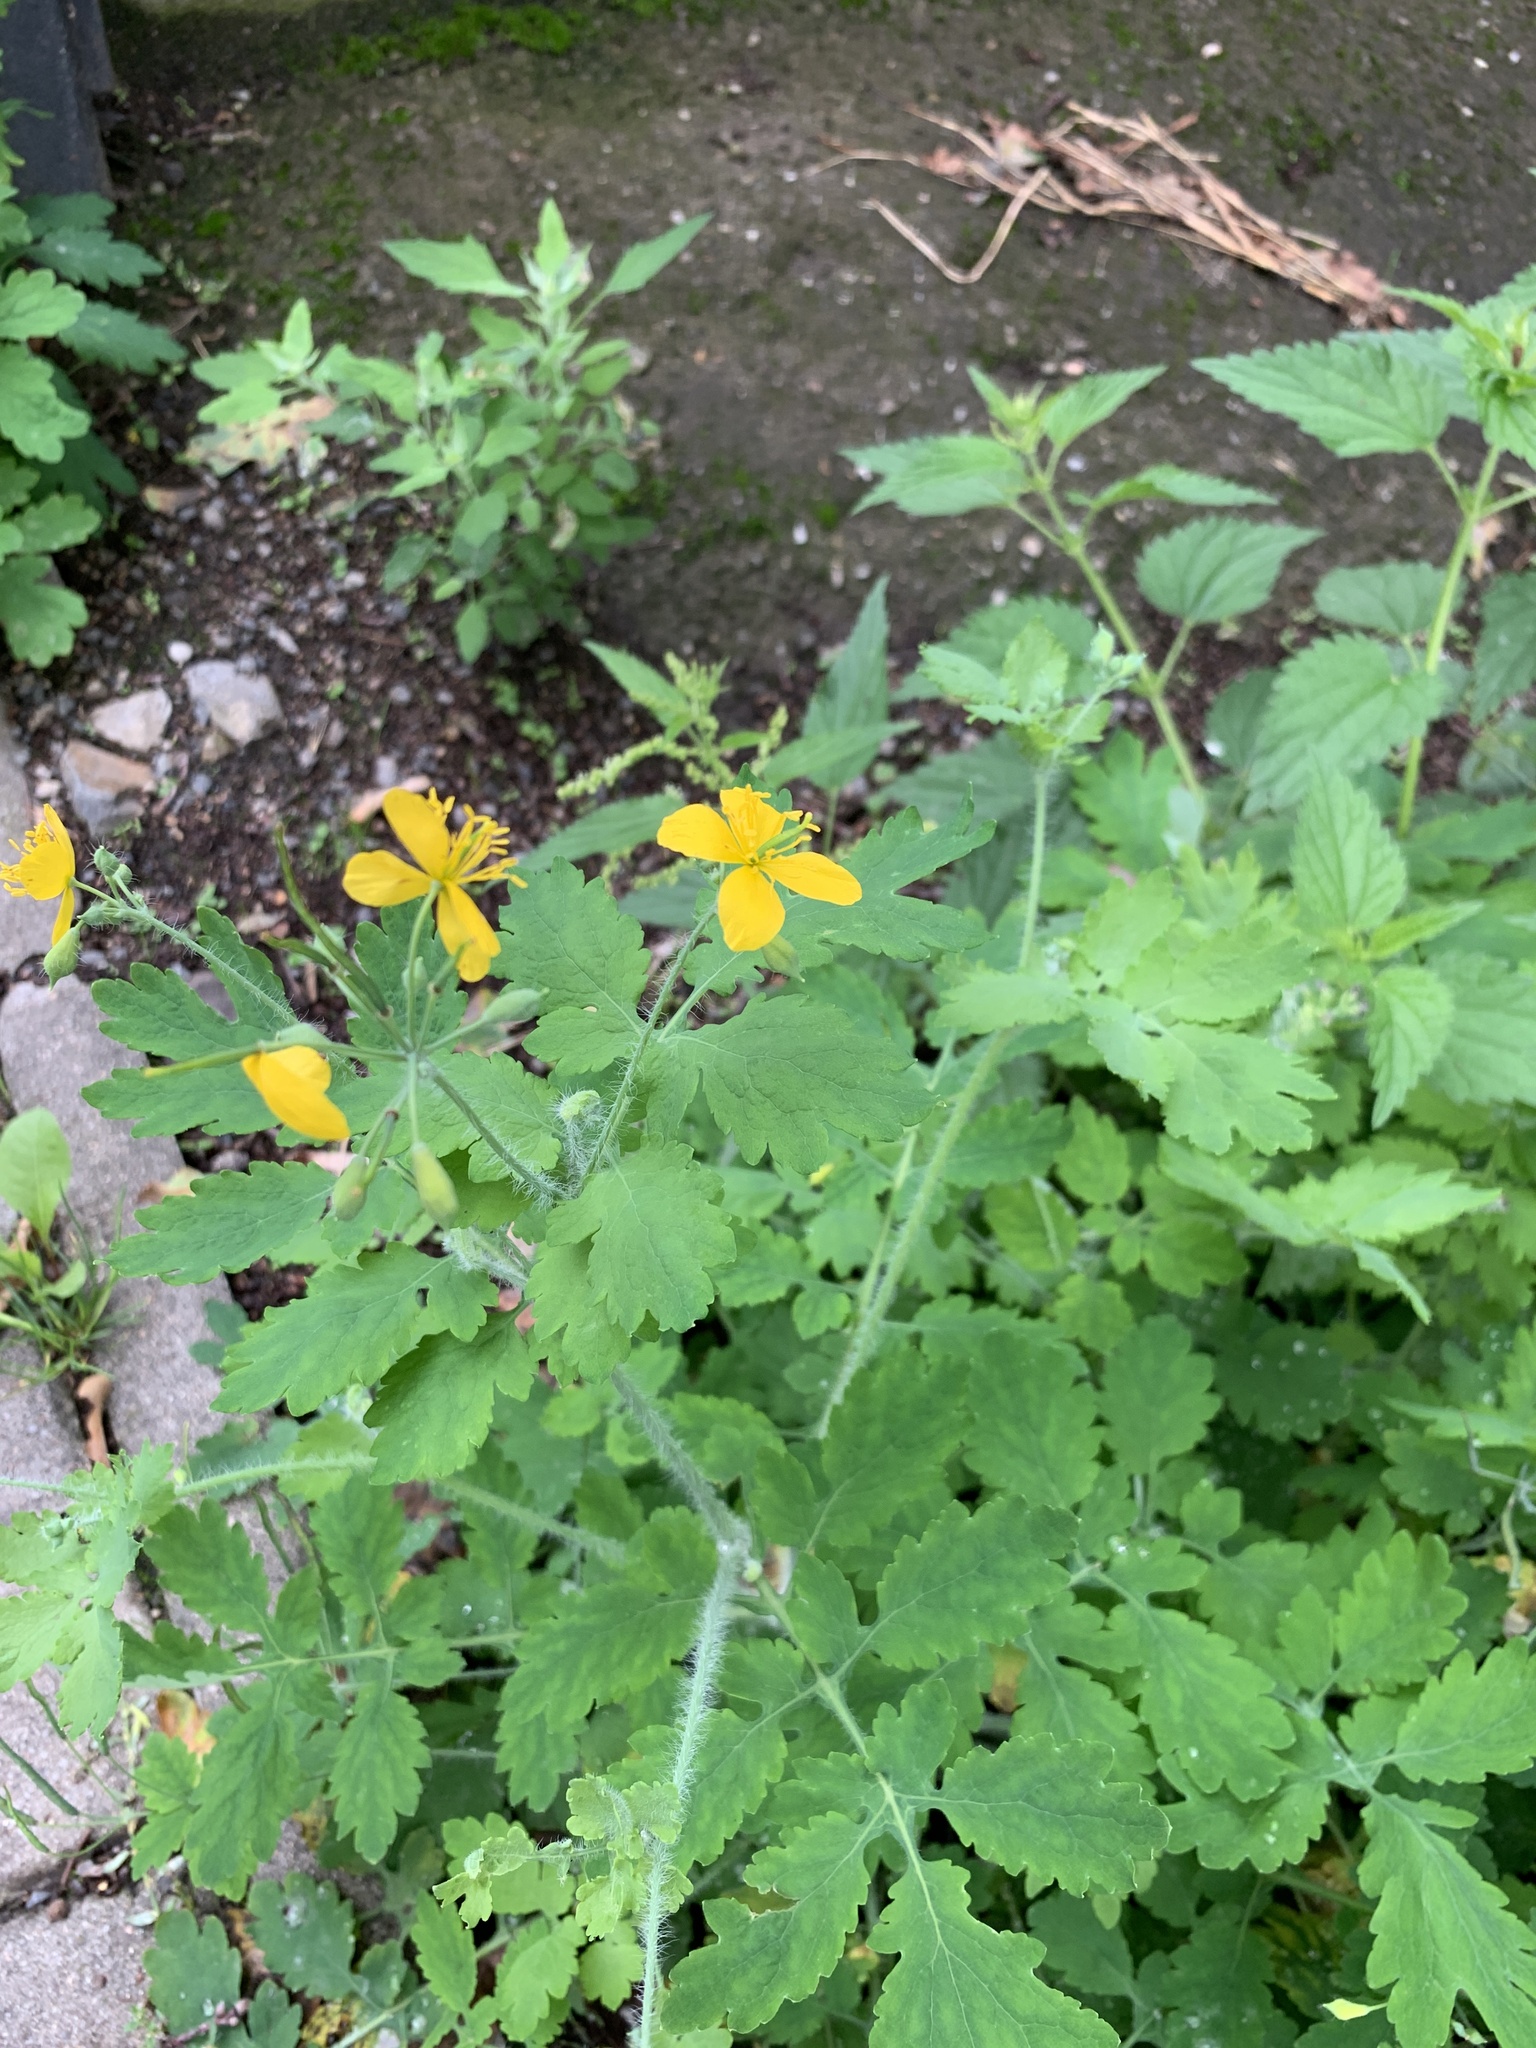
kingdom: Plantae
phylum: Tracheophyta
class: Magnoliopsida
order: Ranunculales
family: Papaveraceae
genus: Chelidonium
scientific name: Chelidonium majus
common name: Greater celandine
